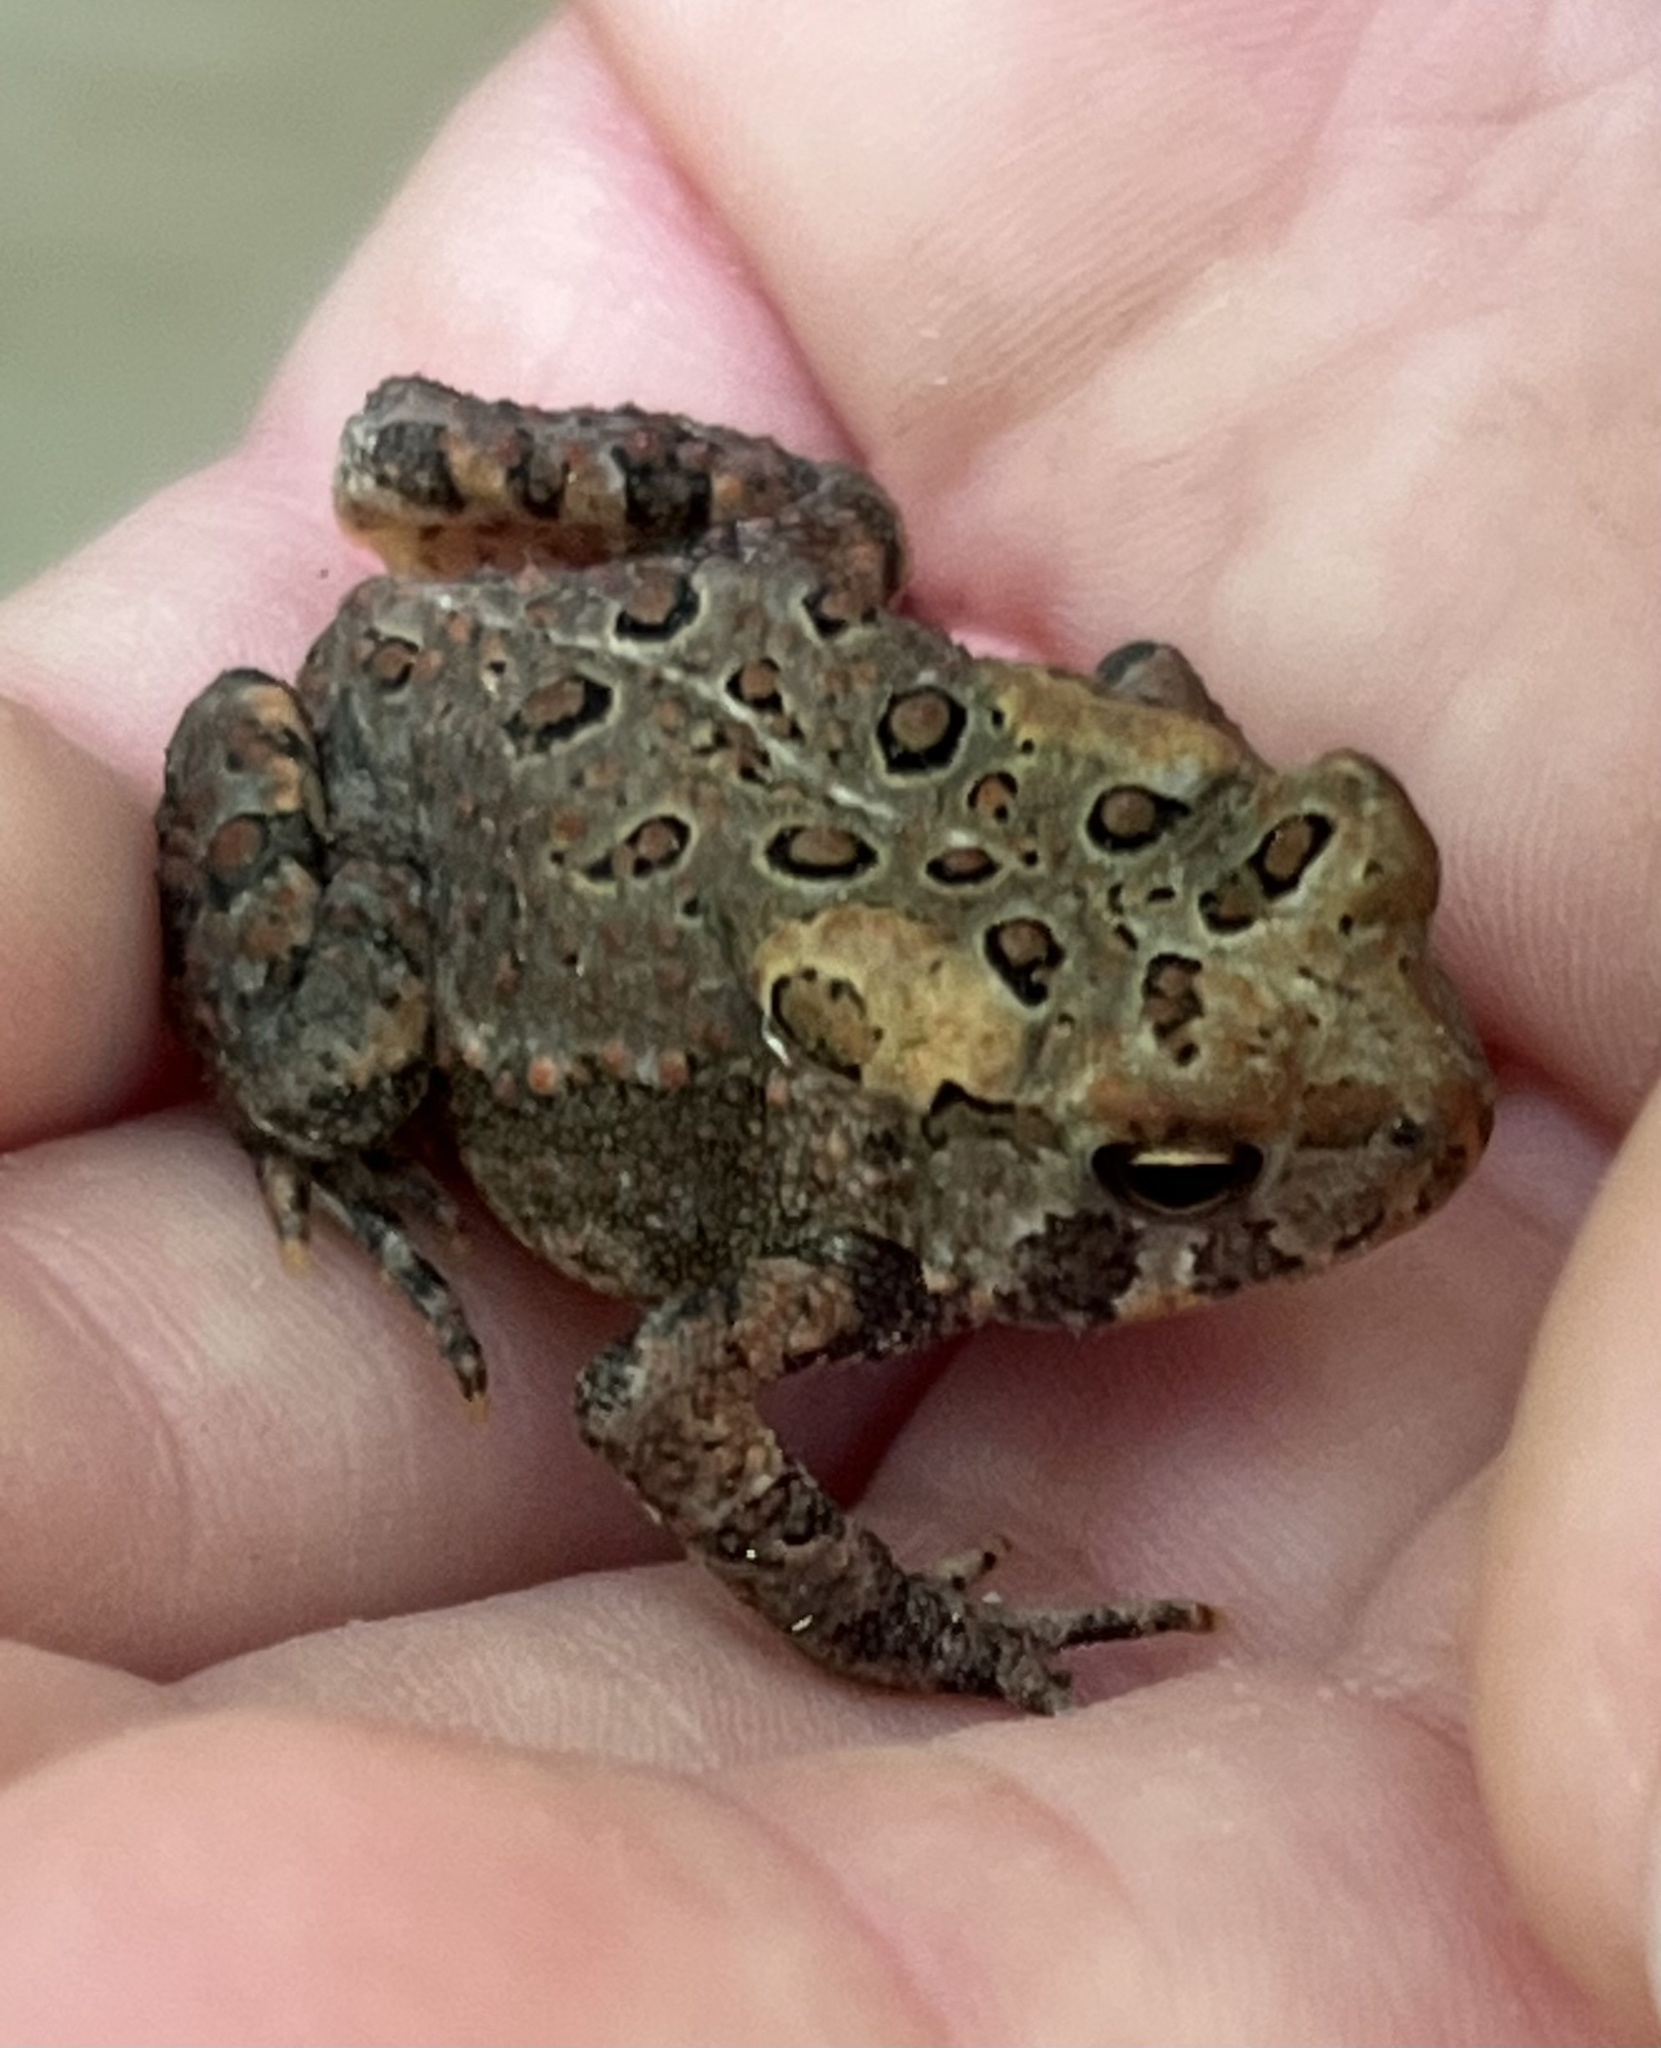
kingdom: Animalia
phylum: Chordata
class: Amphibia
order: Anura
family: Bufonidae
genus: Anaxyrus
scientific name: Anaxyrus americanus
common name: American toad
